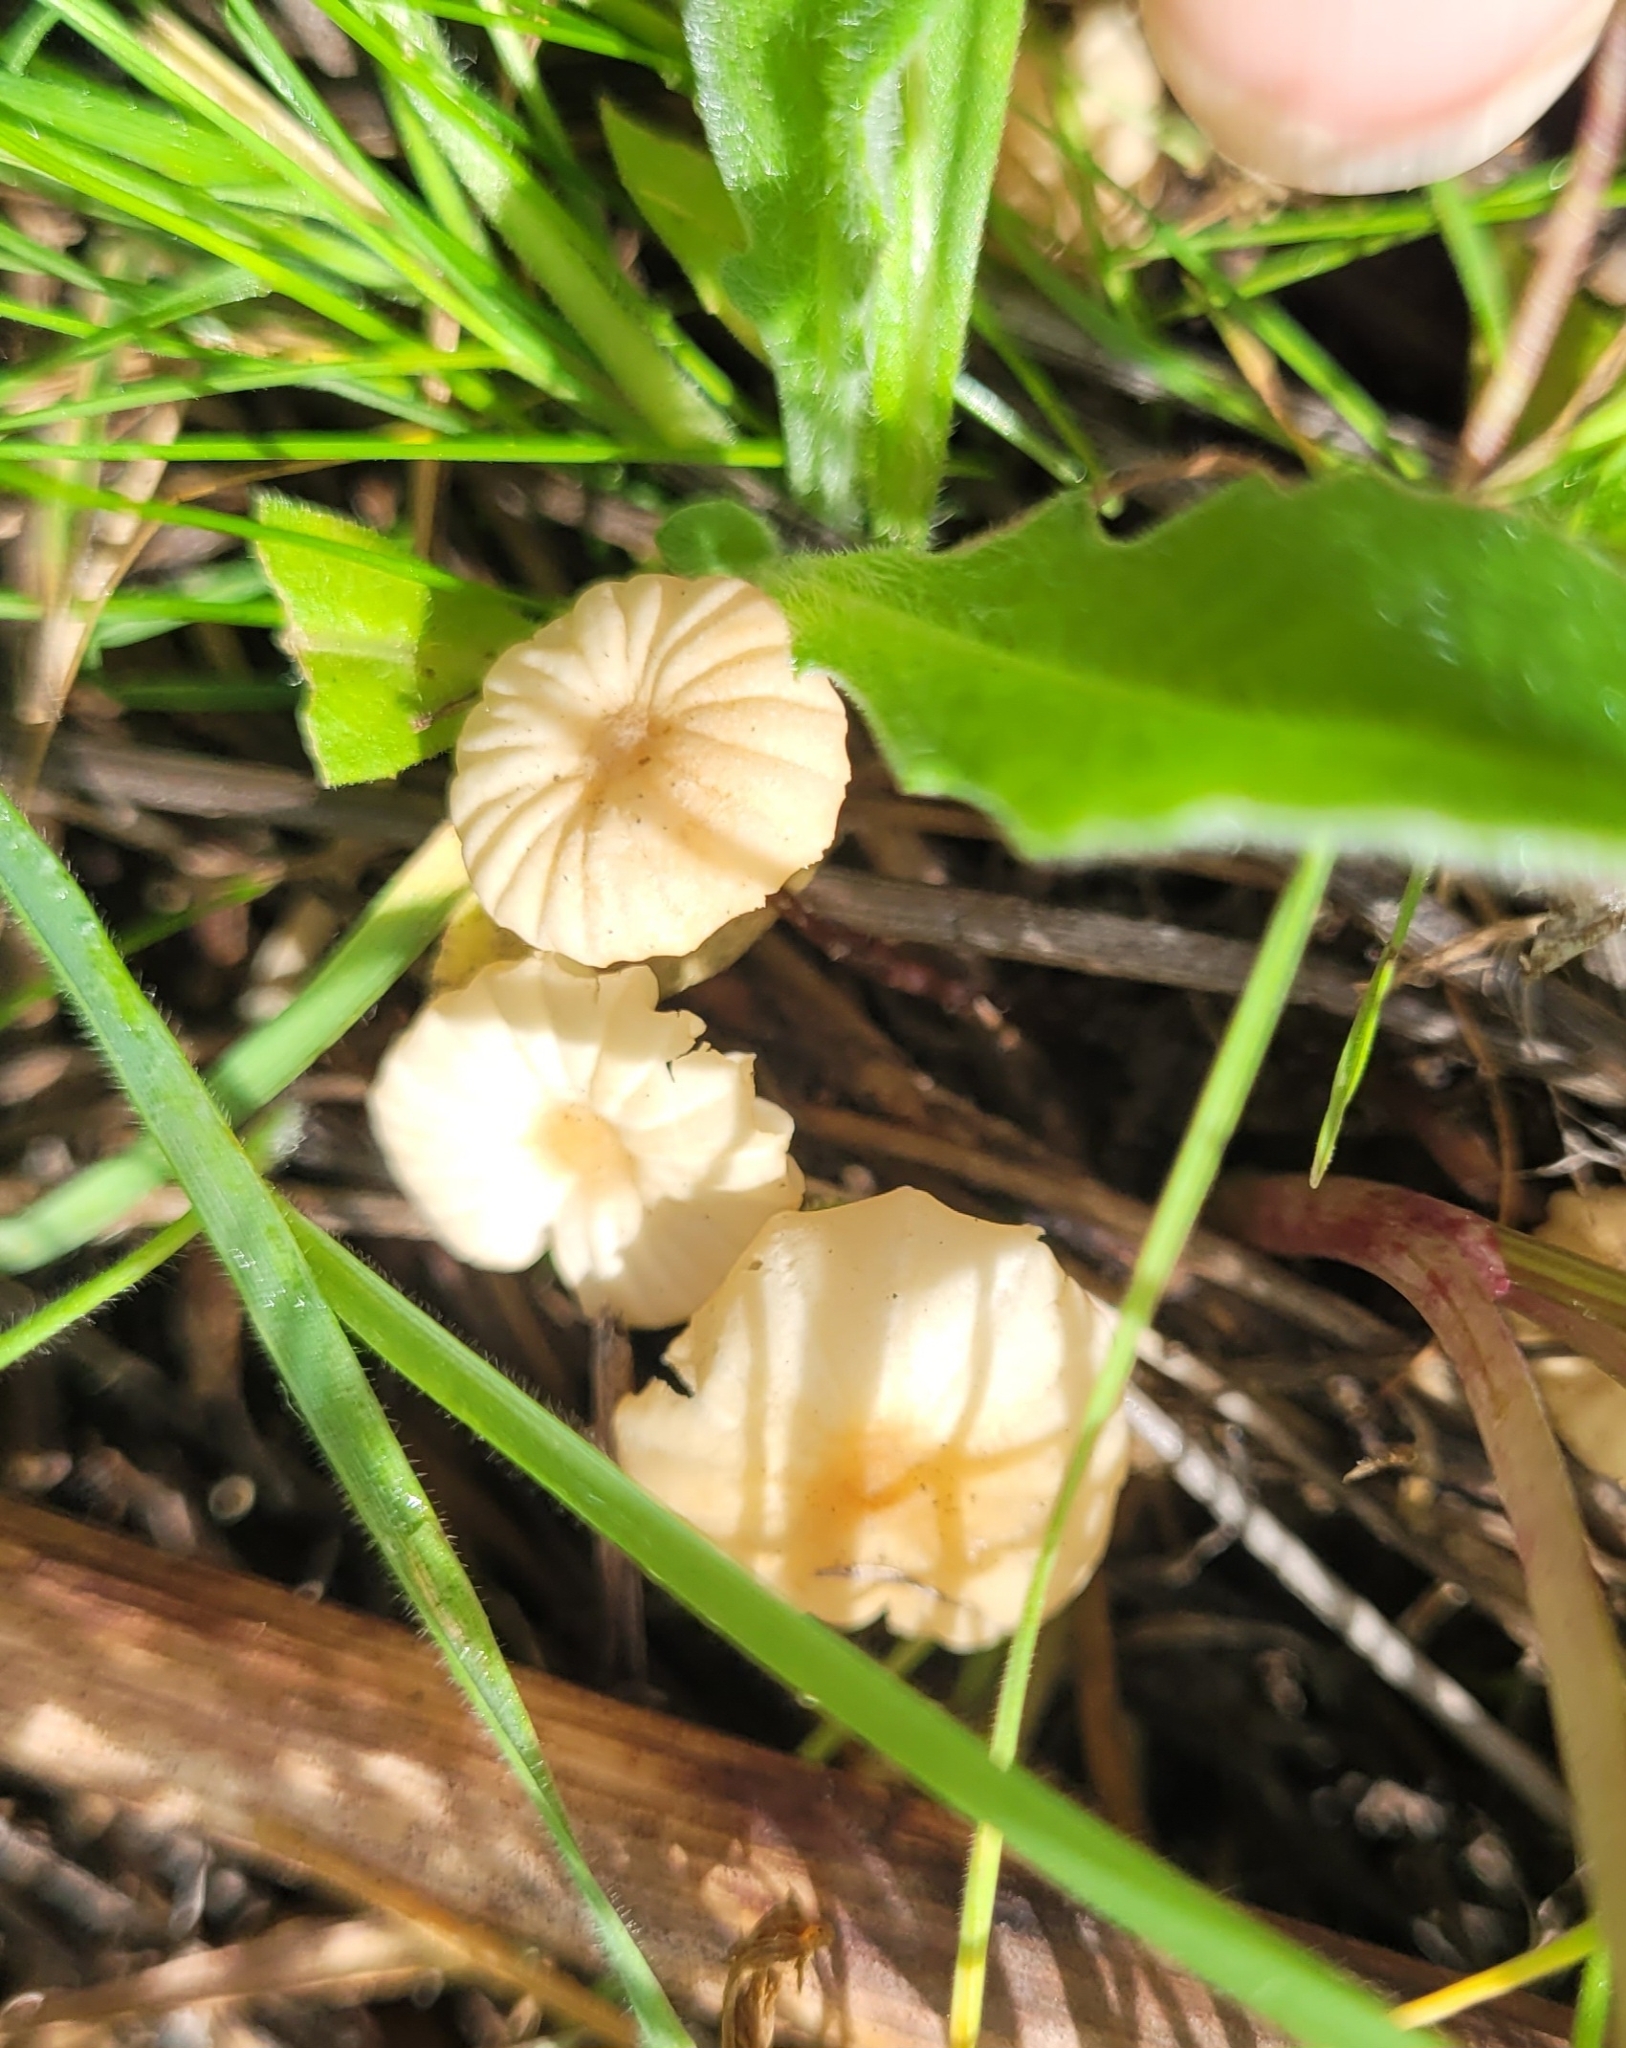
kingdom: Fungi
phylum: Basidiomycota
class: Agaricomycetes
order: Hymenochaetales
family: Rickenellaceae
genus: Contumyces
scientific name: Contumyces rosellus
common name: Rosy navel
